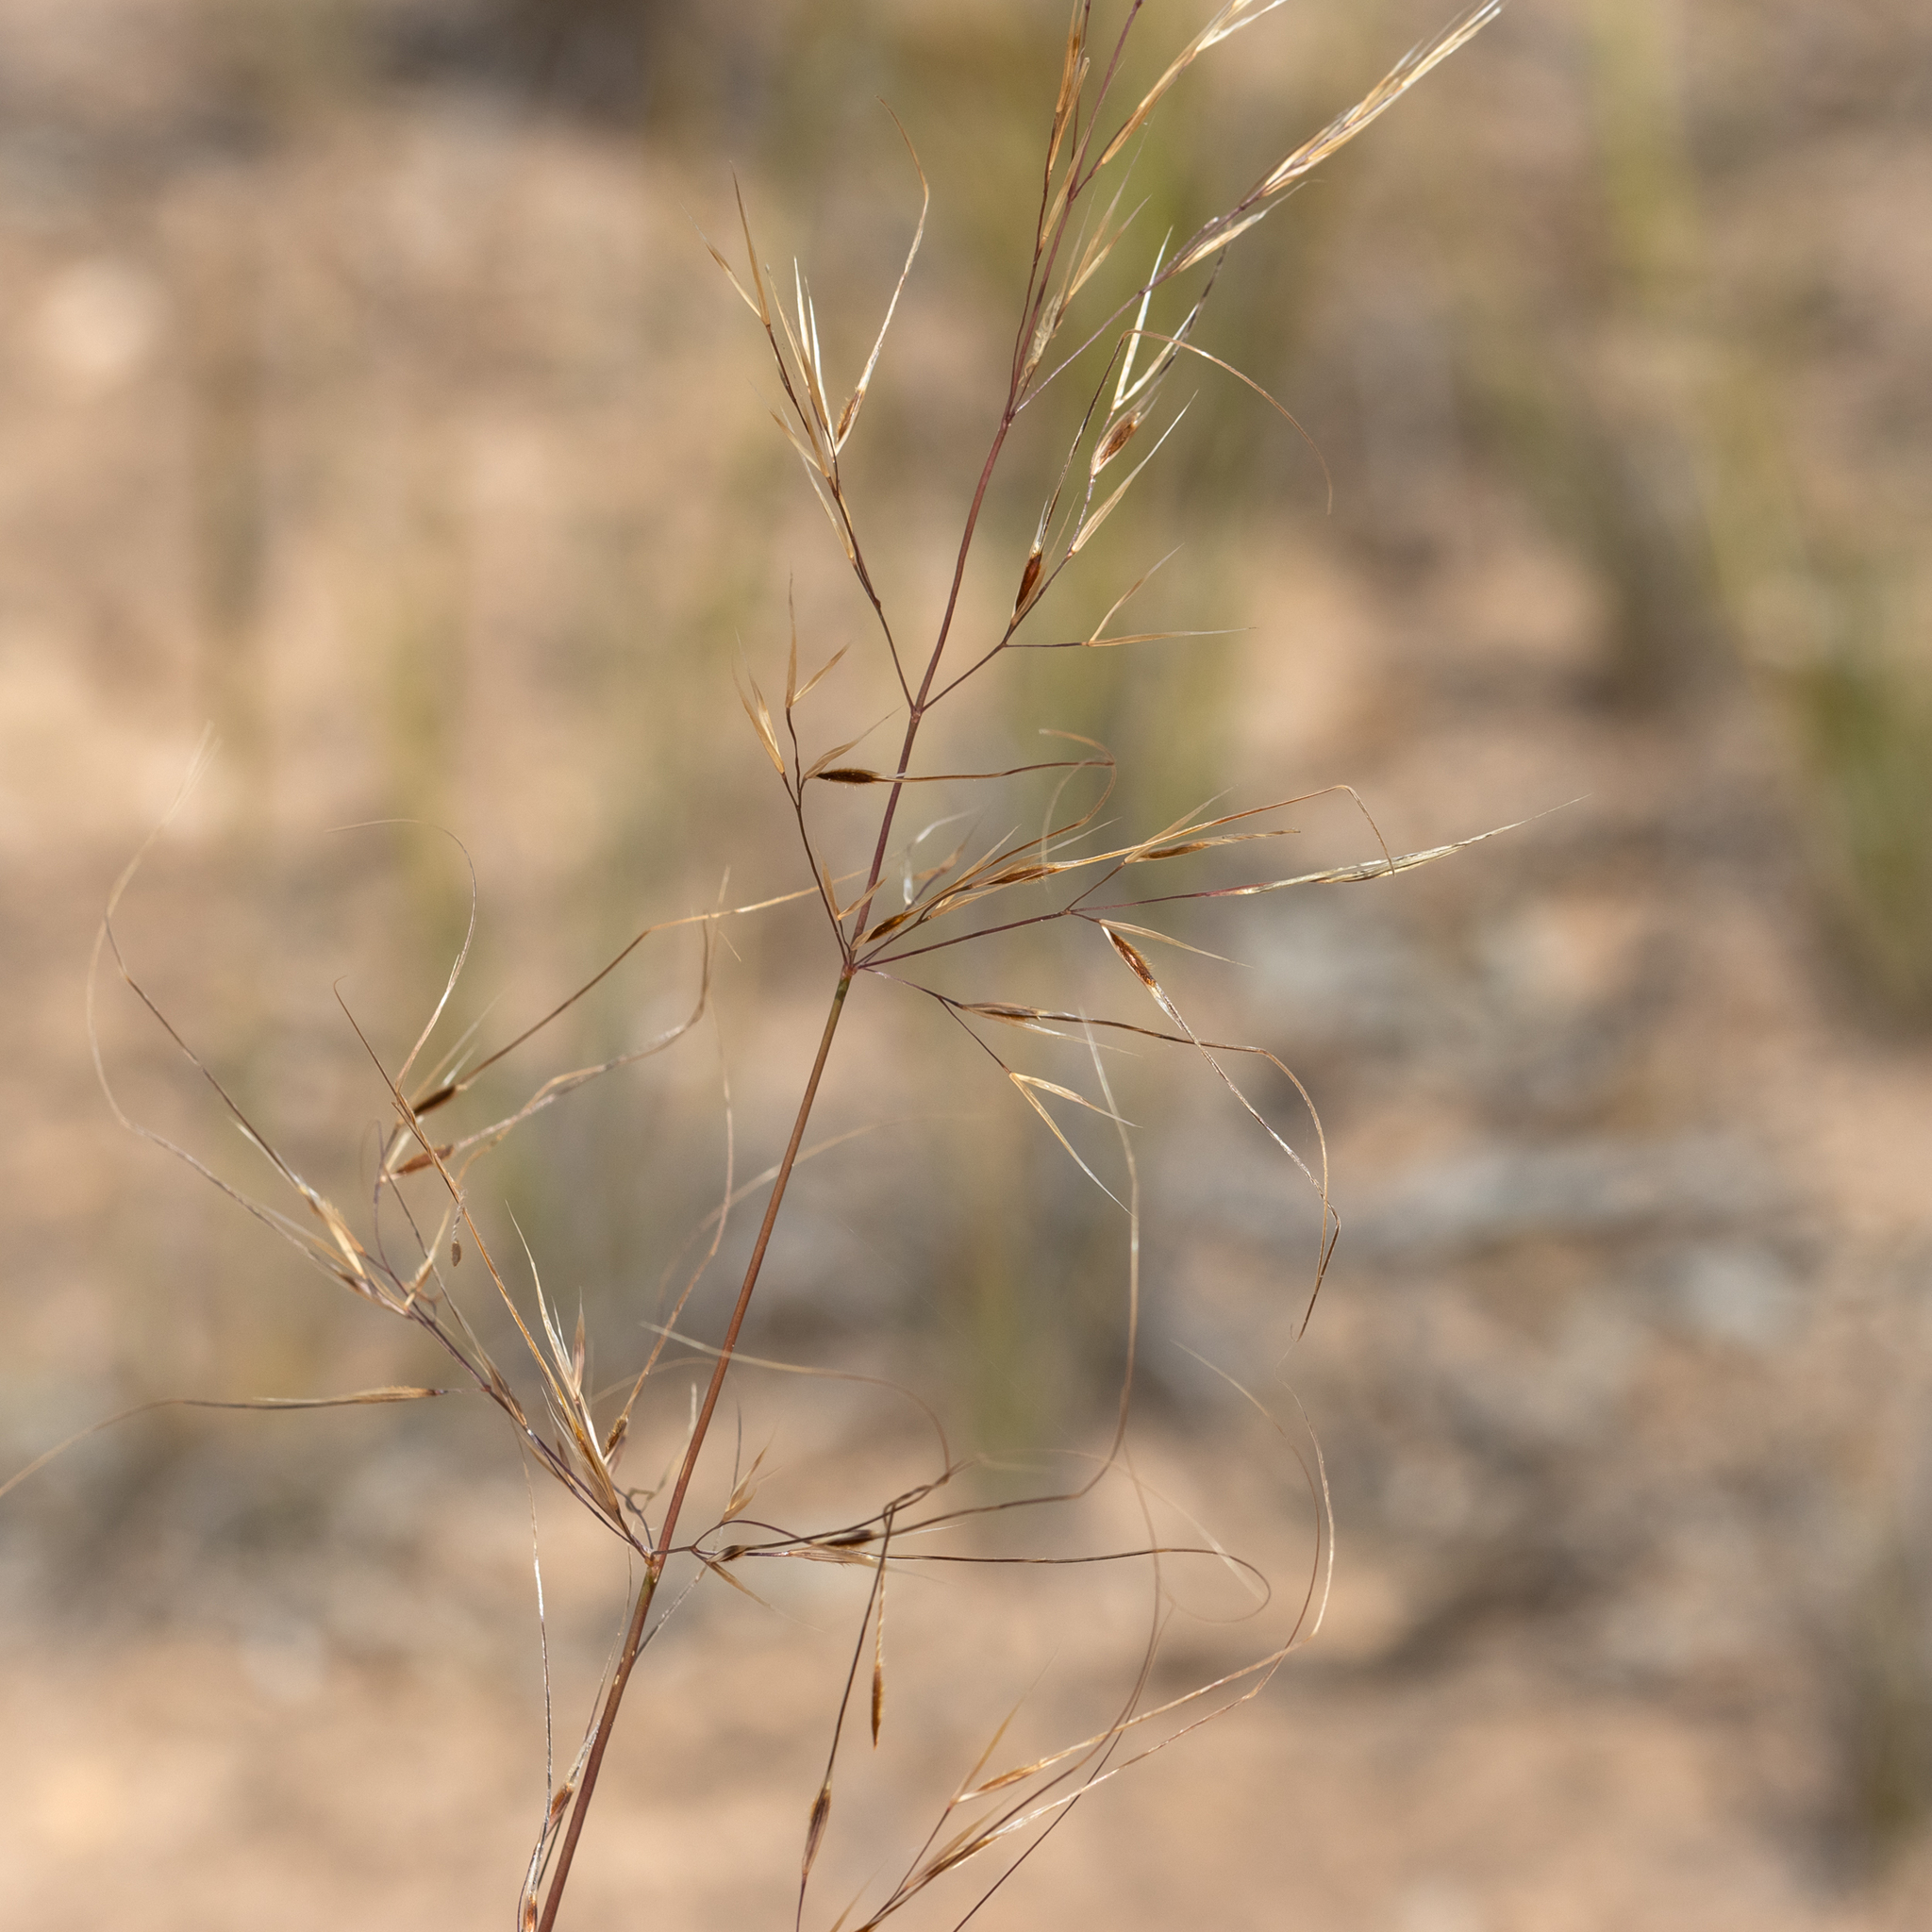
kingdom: Plantae
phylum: Tracheophyta
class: Liliopsida
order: Poales
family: Poaceae
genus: Austrostipa
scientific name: Austrostipa eremophila
